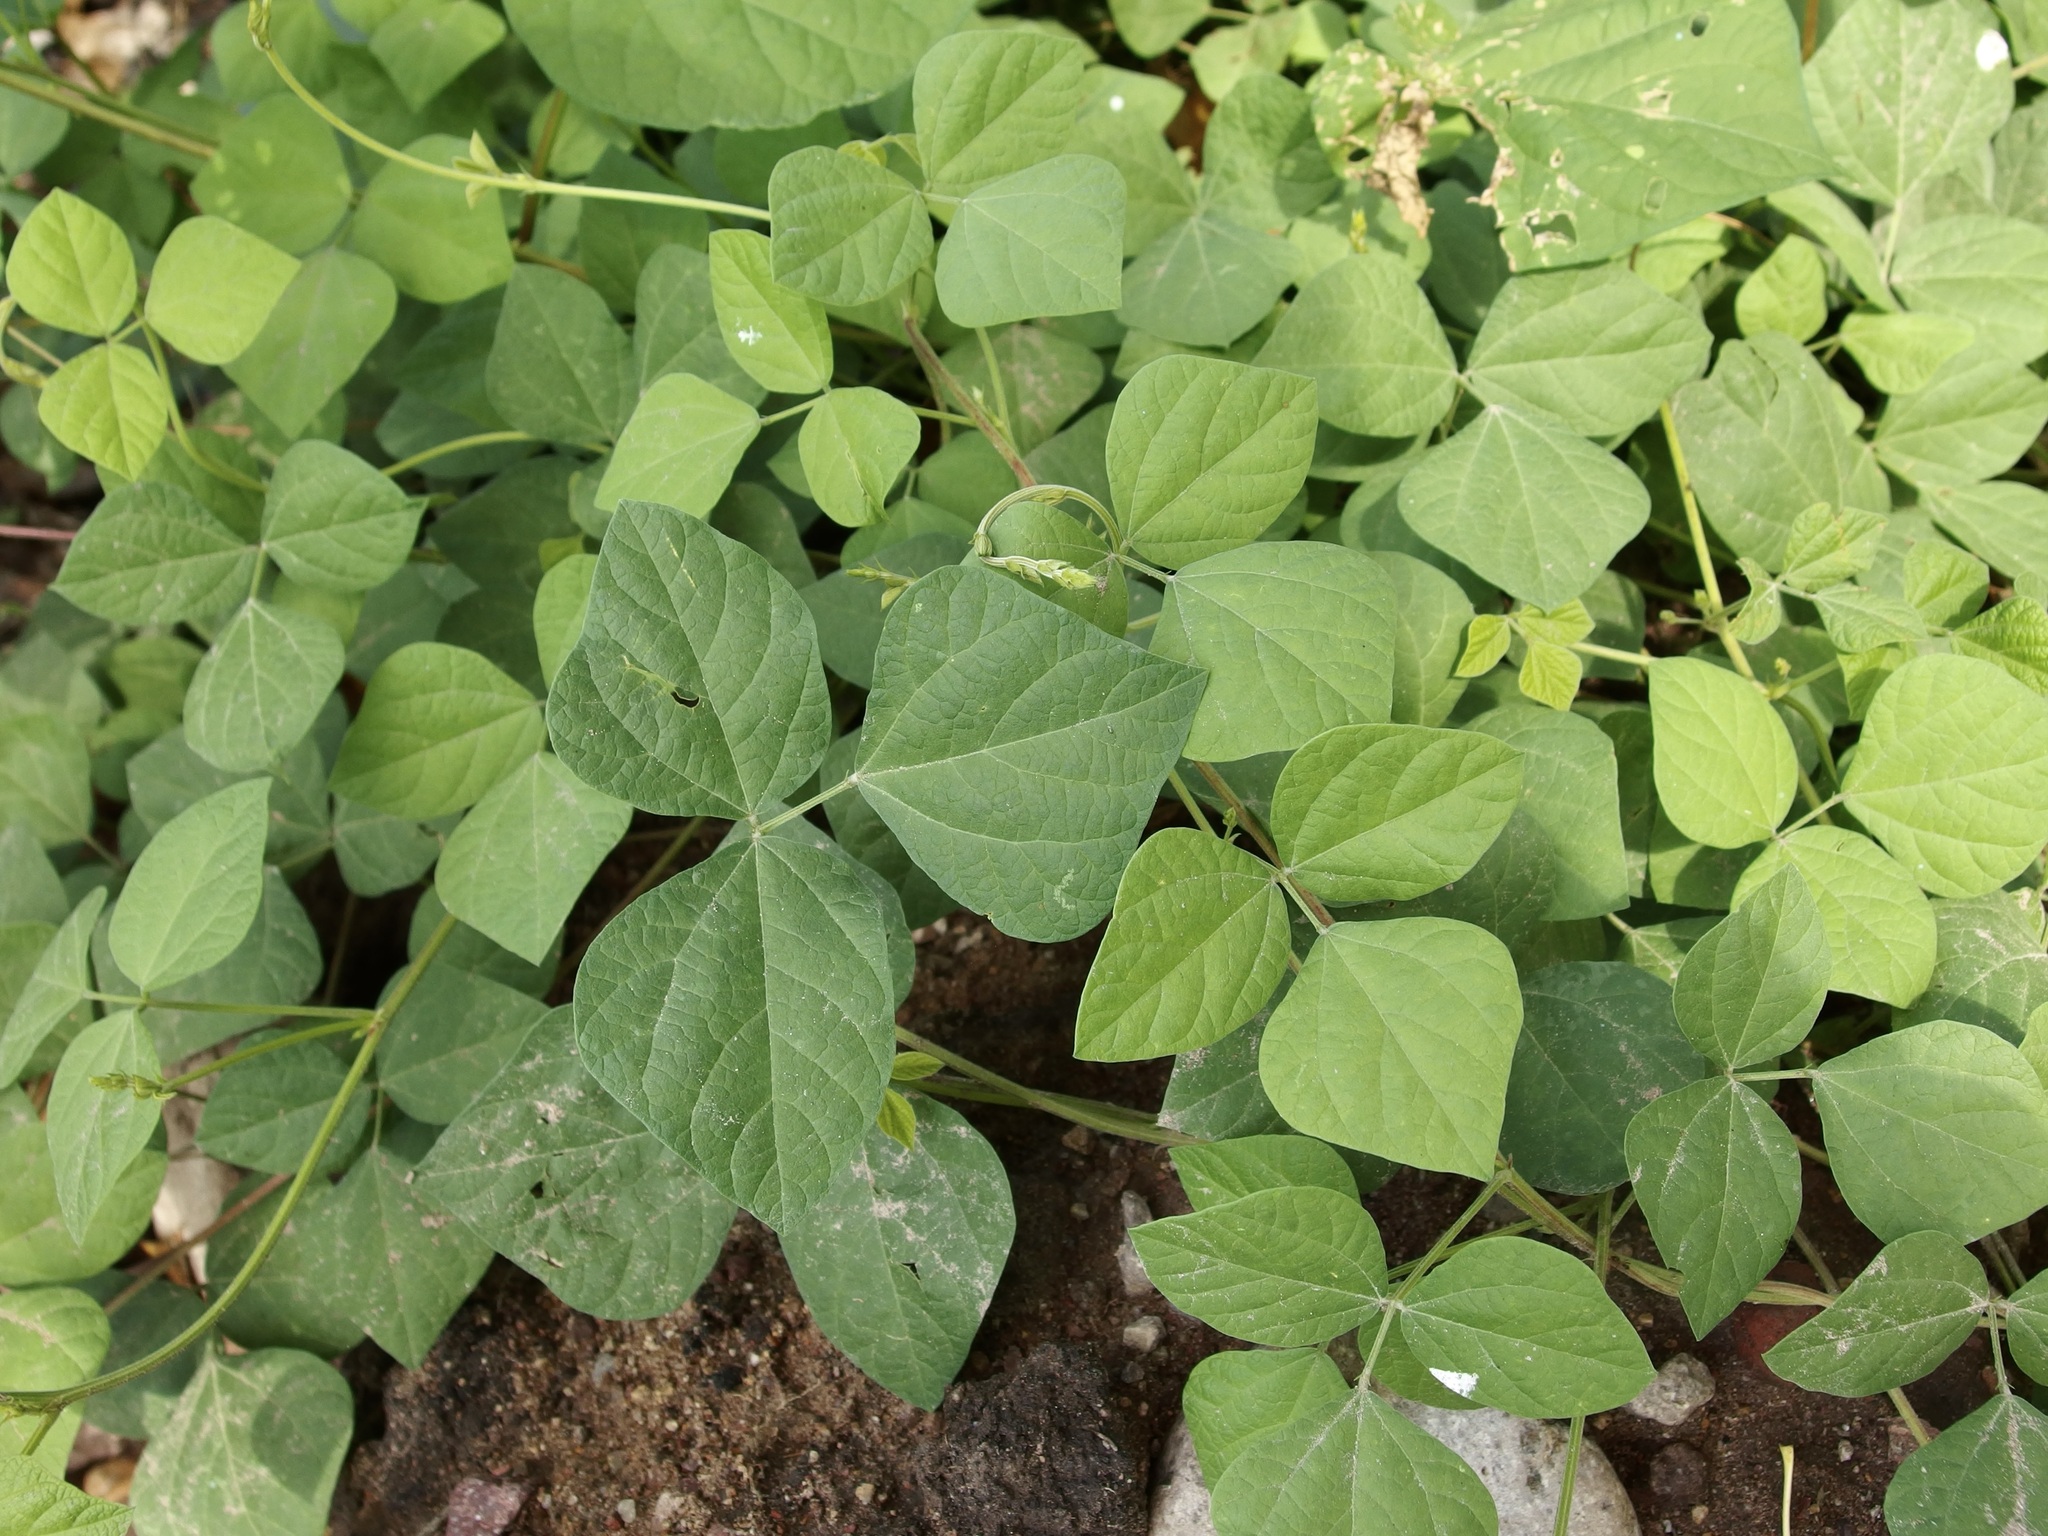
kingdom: Plantae
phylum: Tracheophyta
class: Magnoliopsida
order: Fabales
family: Fabaceae
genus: Rhynchosia
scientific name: Rhynchosia minima
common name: Least snoutbean
